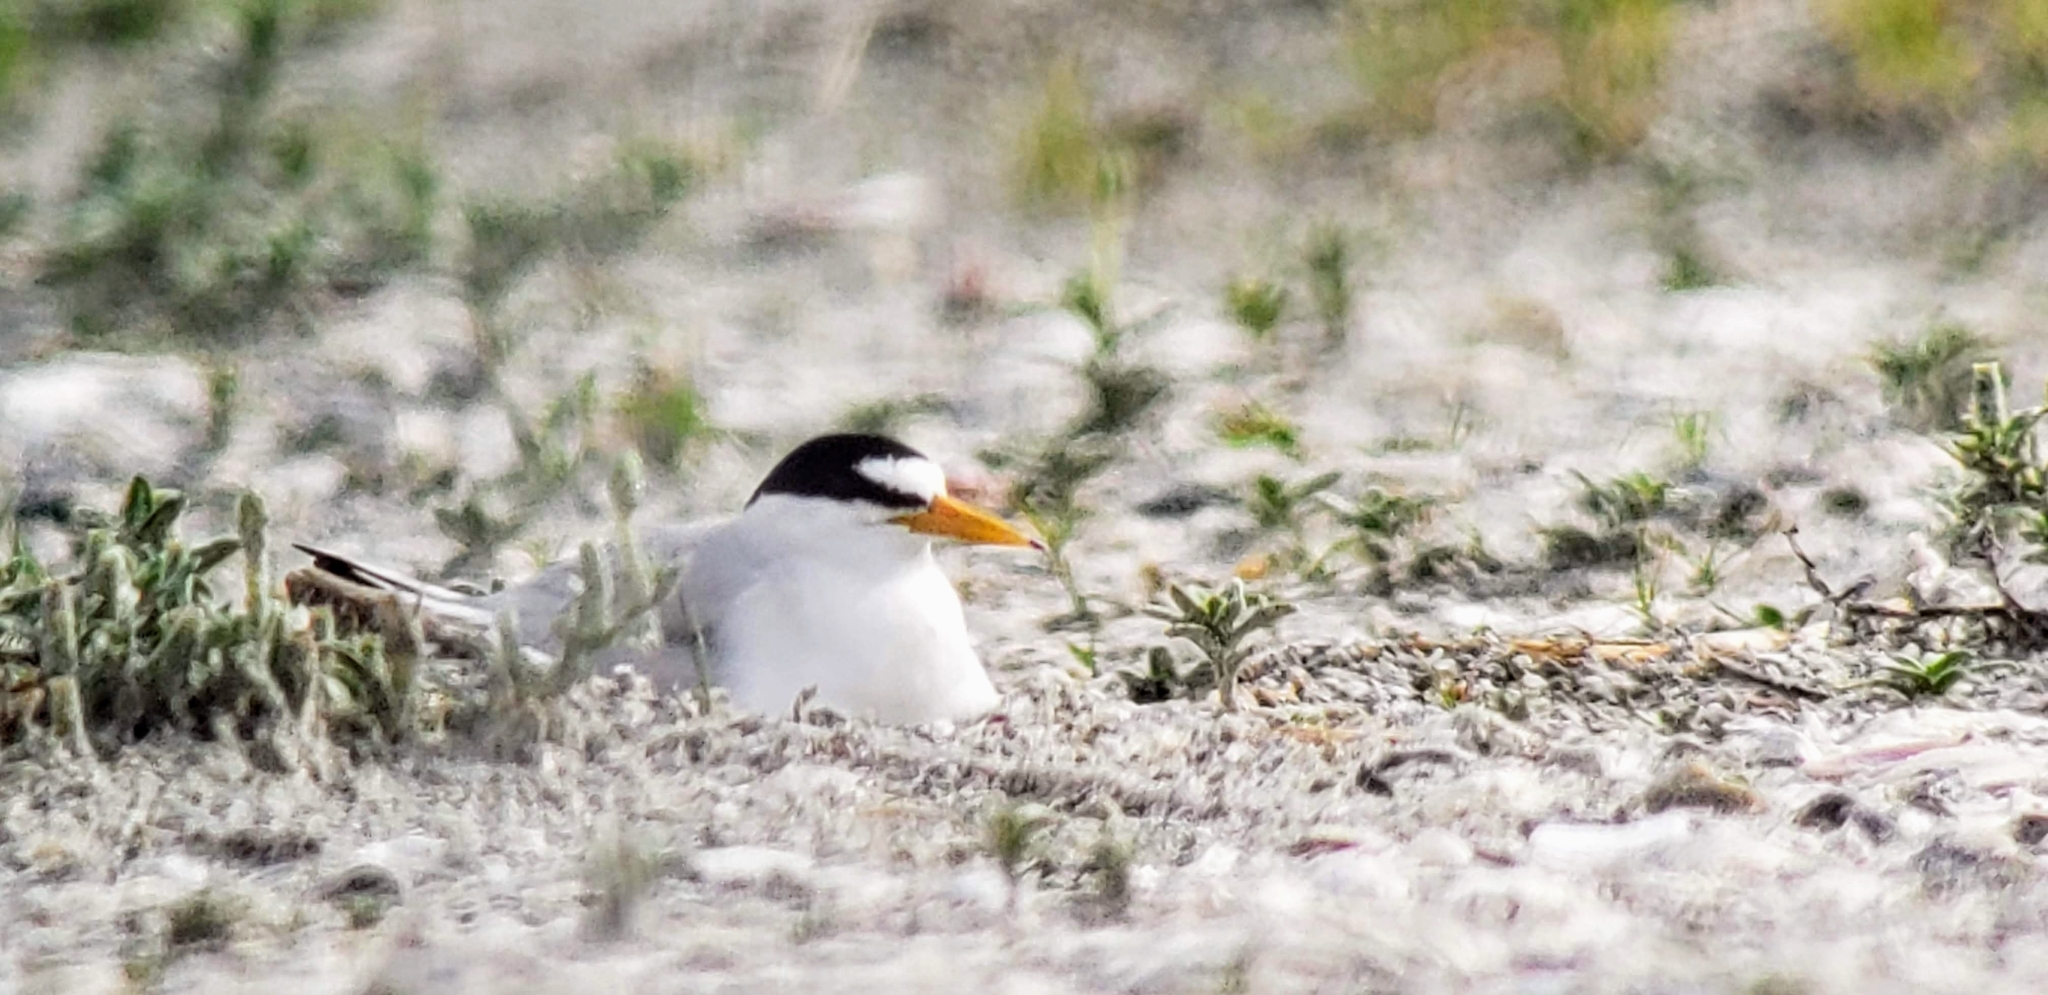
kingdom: Animalia
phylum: Chordata
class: Aves
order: Charadriiformes
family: Laridae
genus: Sternula
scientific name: Sternula antillarum
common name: Least tern
